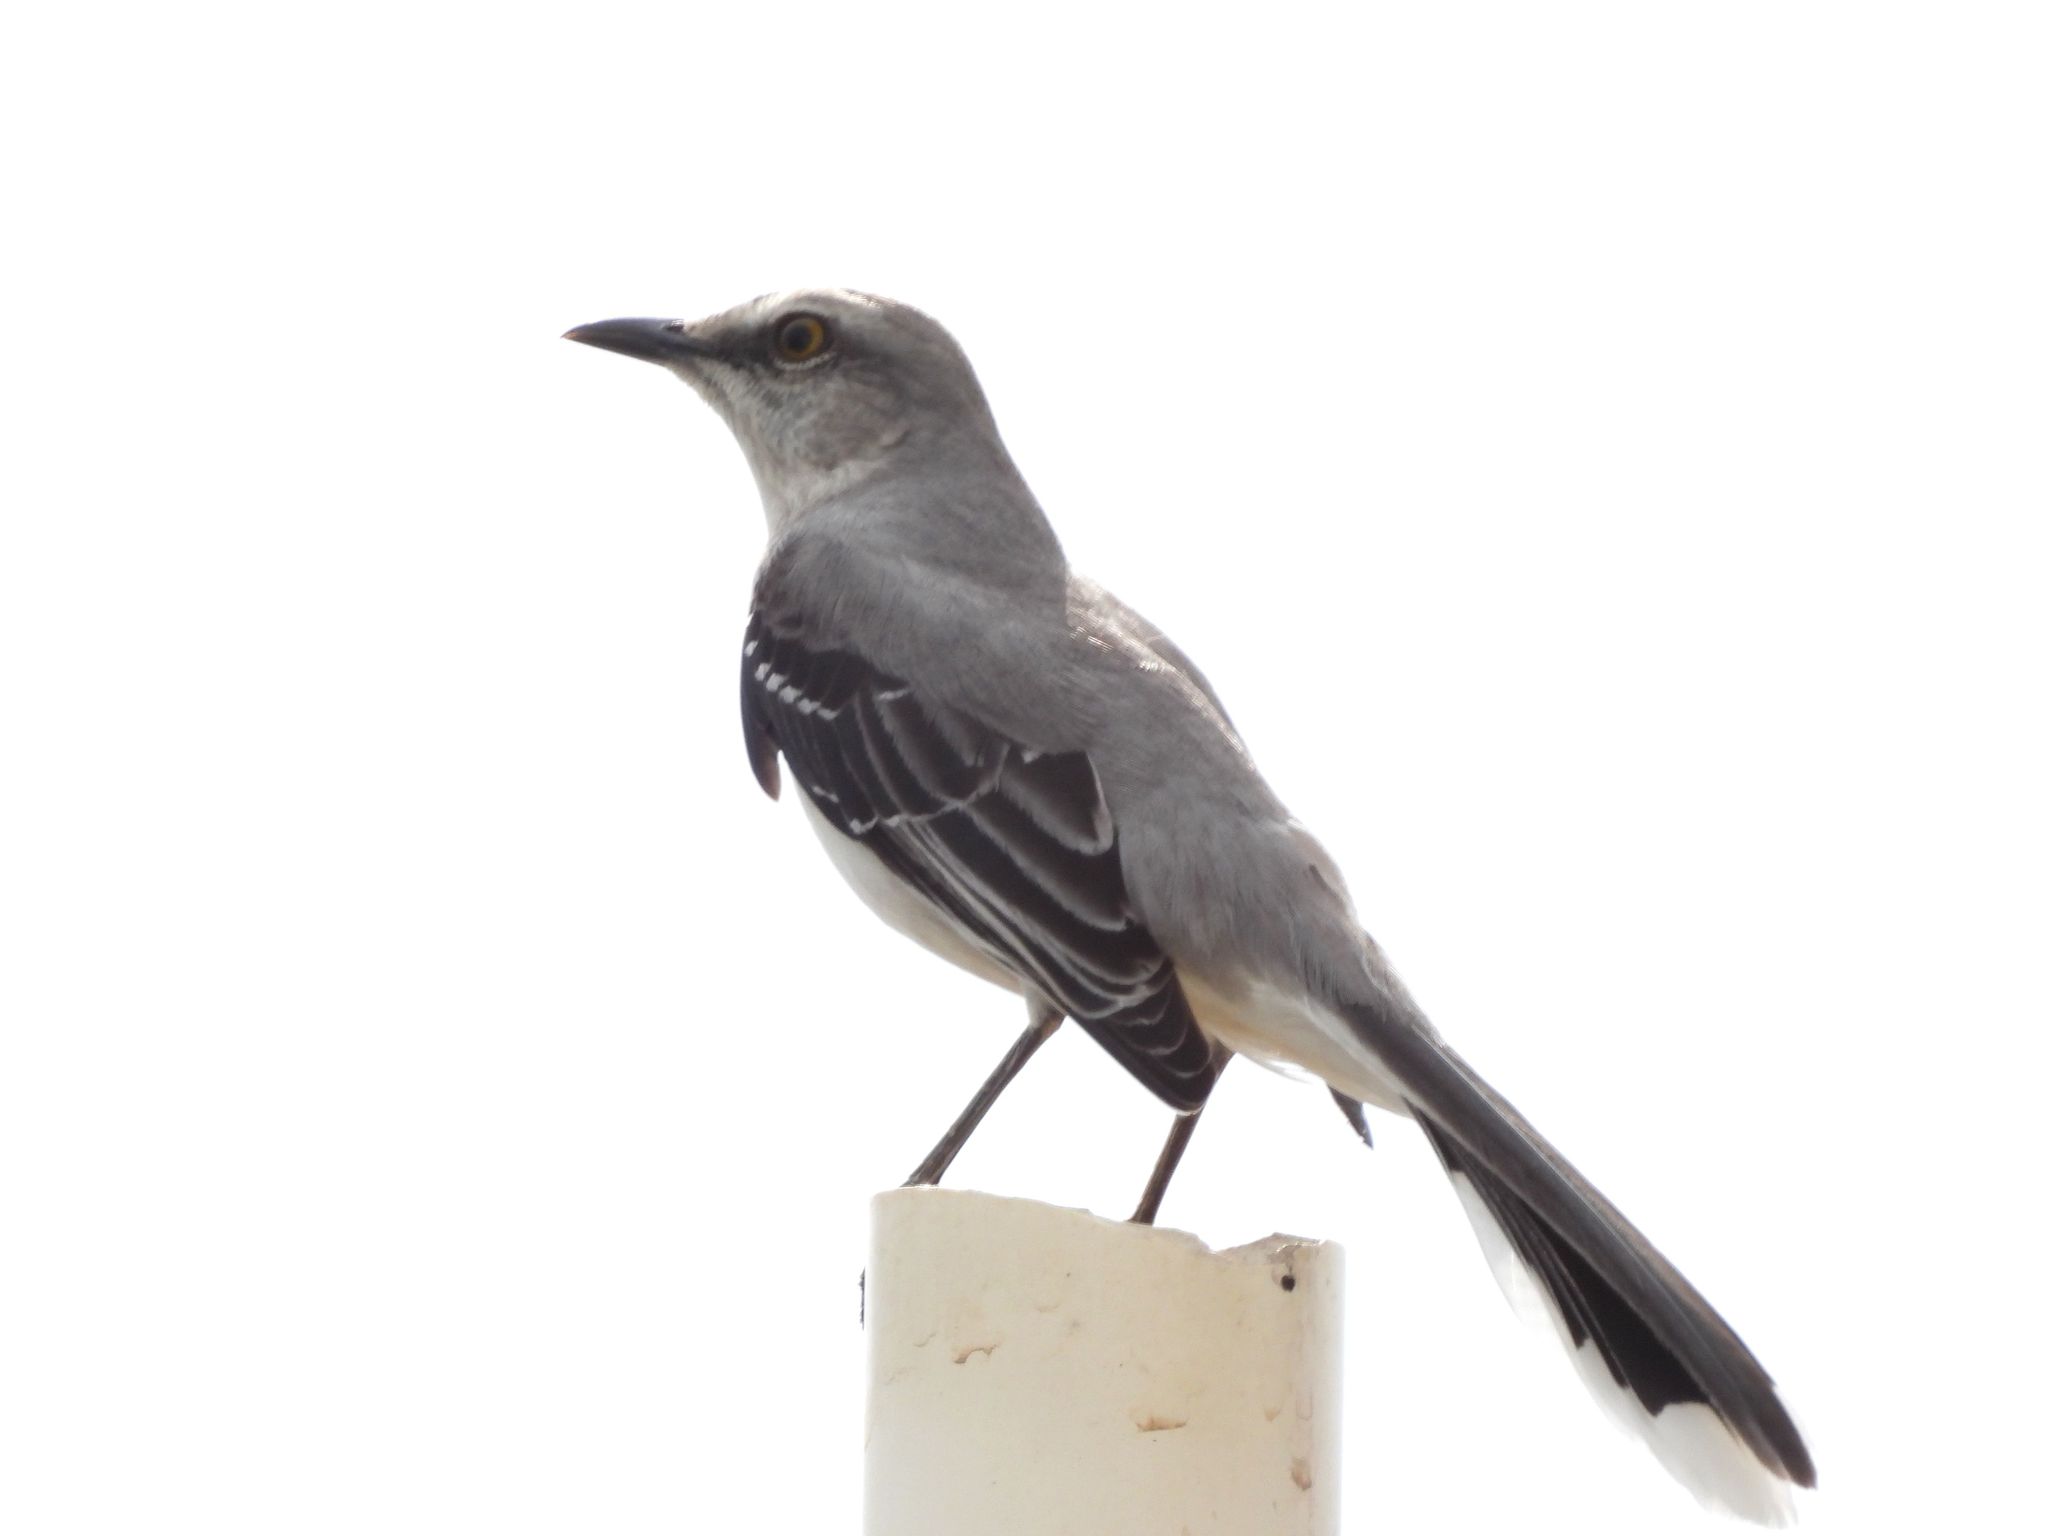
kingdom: Animalia
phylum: Chordata
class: Aves
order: Passeriformes
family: Mimidae
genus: Mimus
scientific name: Mimus gilvus
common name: Tropical mockingbird
